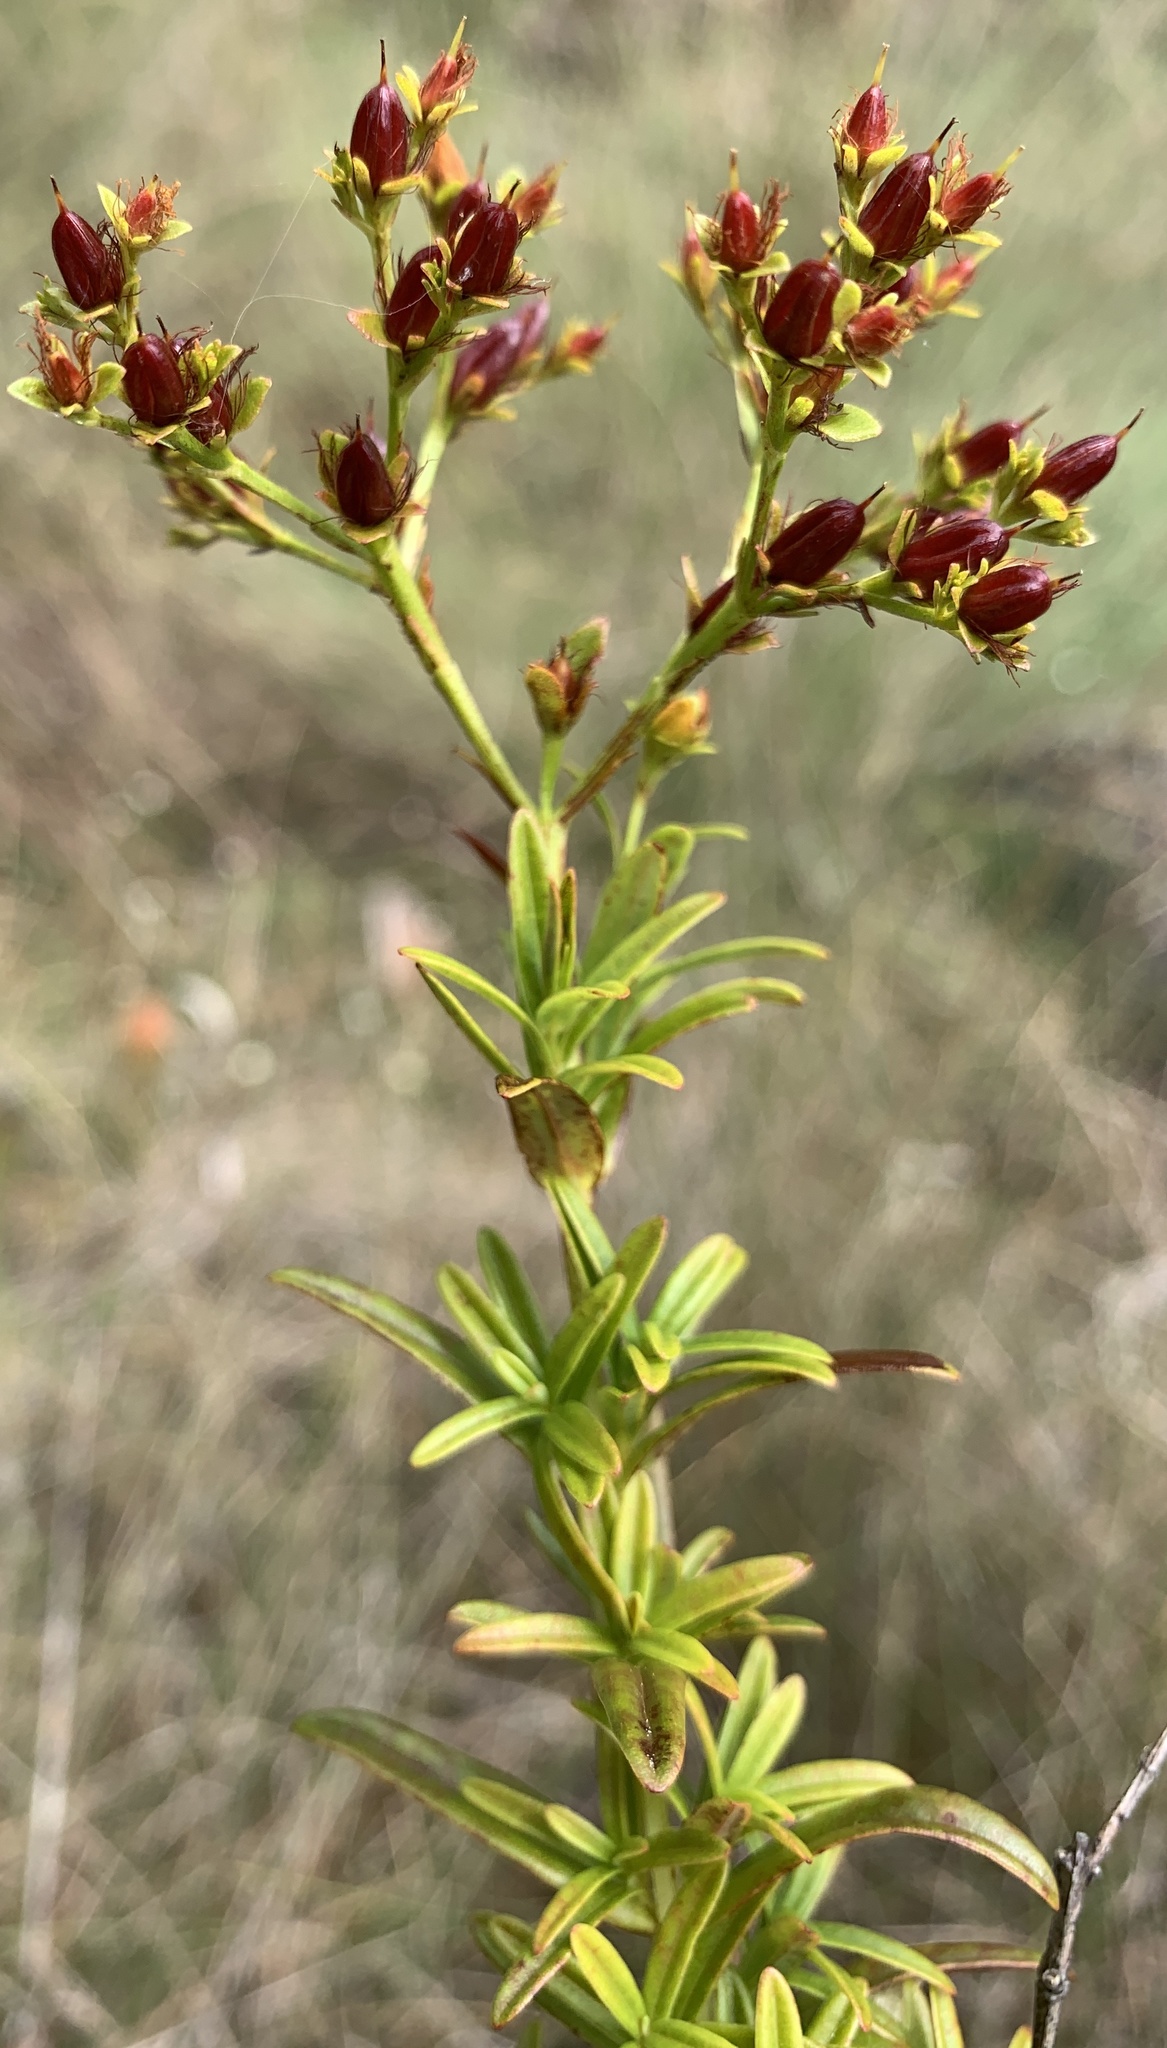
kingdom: Plantae
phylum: Tracheophyta
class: Magnoliopsida
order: Malpighiales
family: Hypericaceae
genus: Hypericum
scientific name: Hypericum cistifolium
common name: Round-pod st. john's-wort
